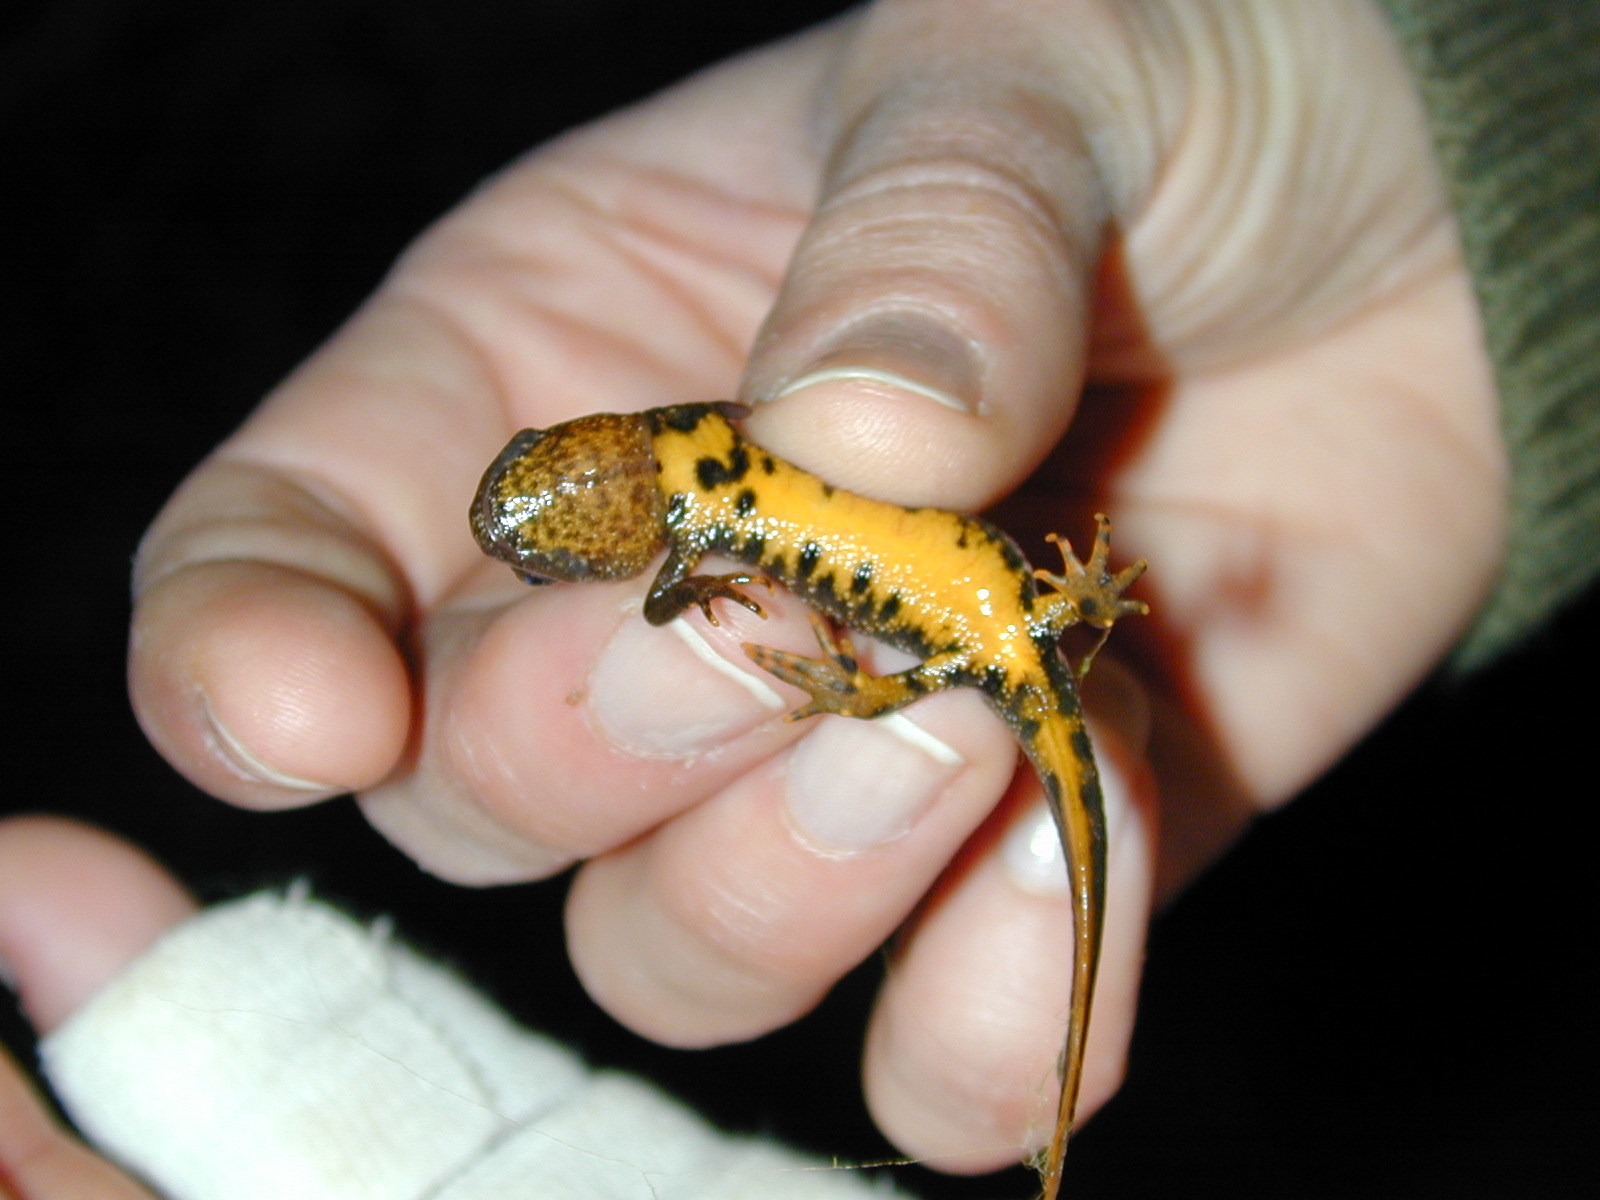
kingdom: Animalia
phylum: Chordata
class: Amphibia
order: Caudata
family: Salamandridae
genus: Triturus
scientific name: Triturus cristatus
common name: Crested newt
